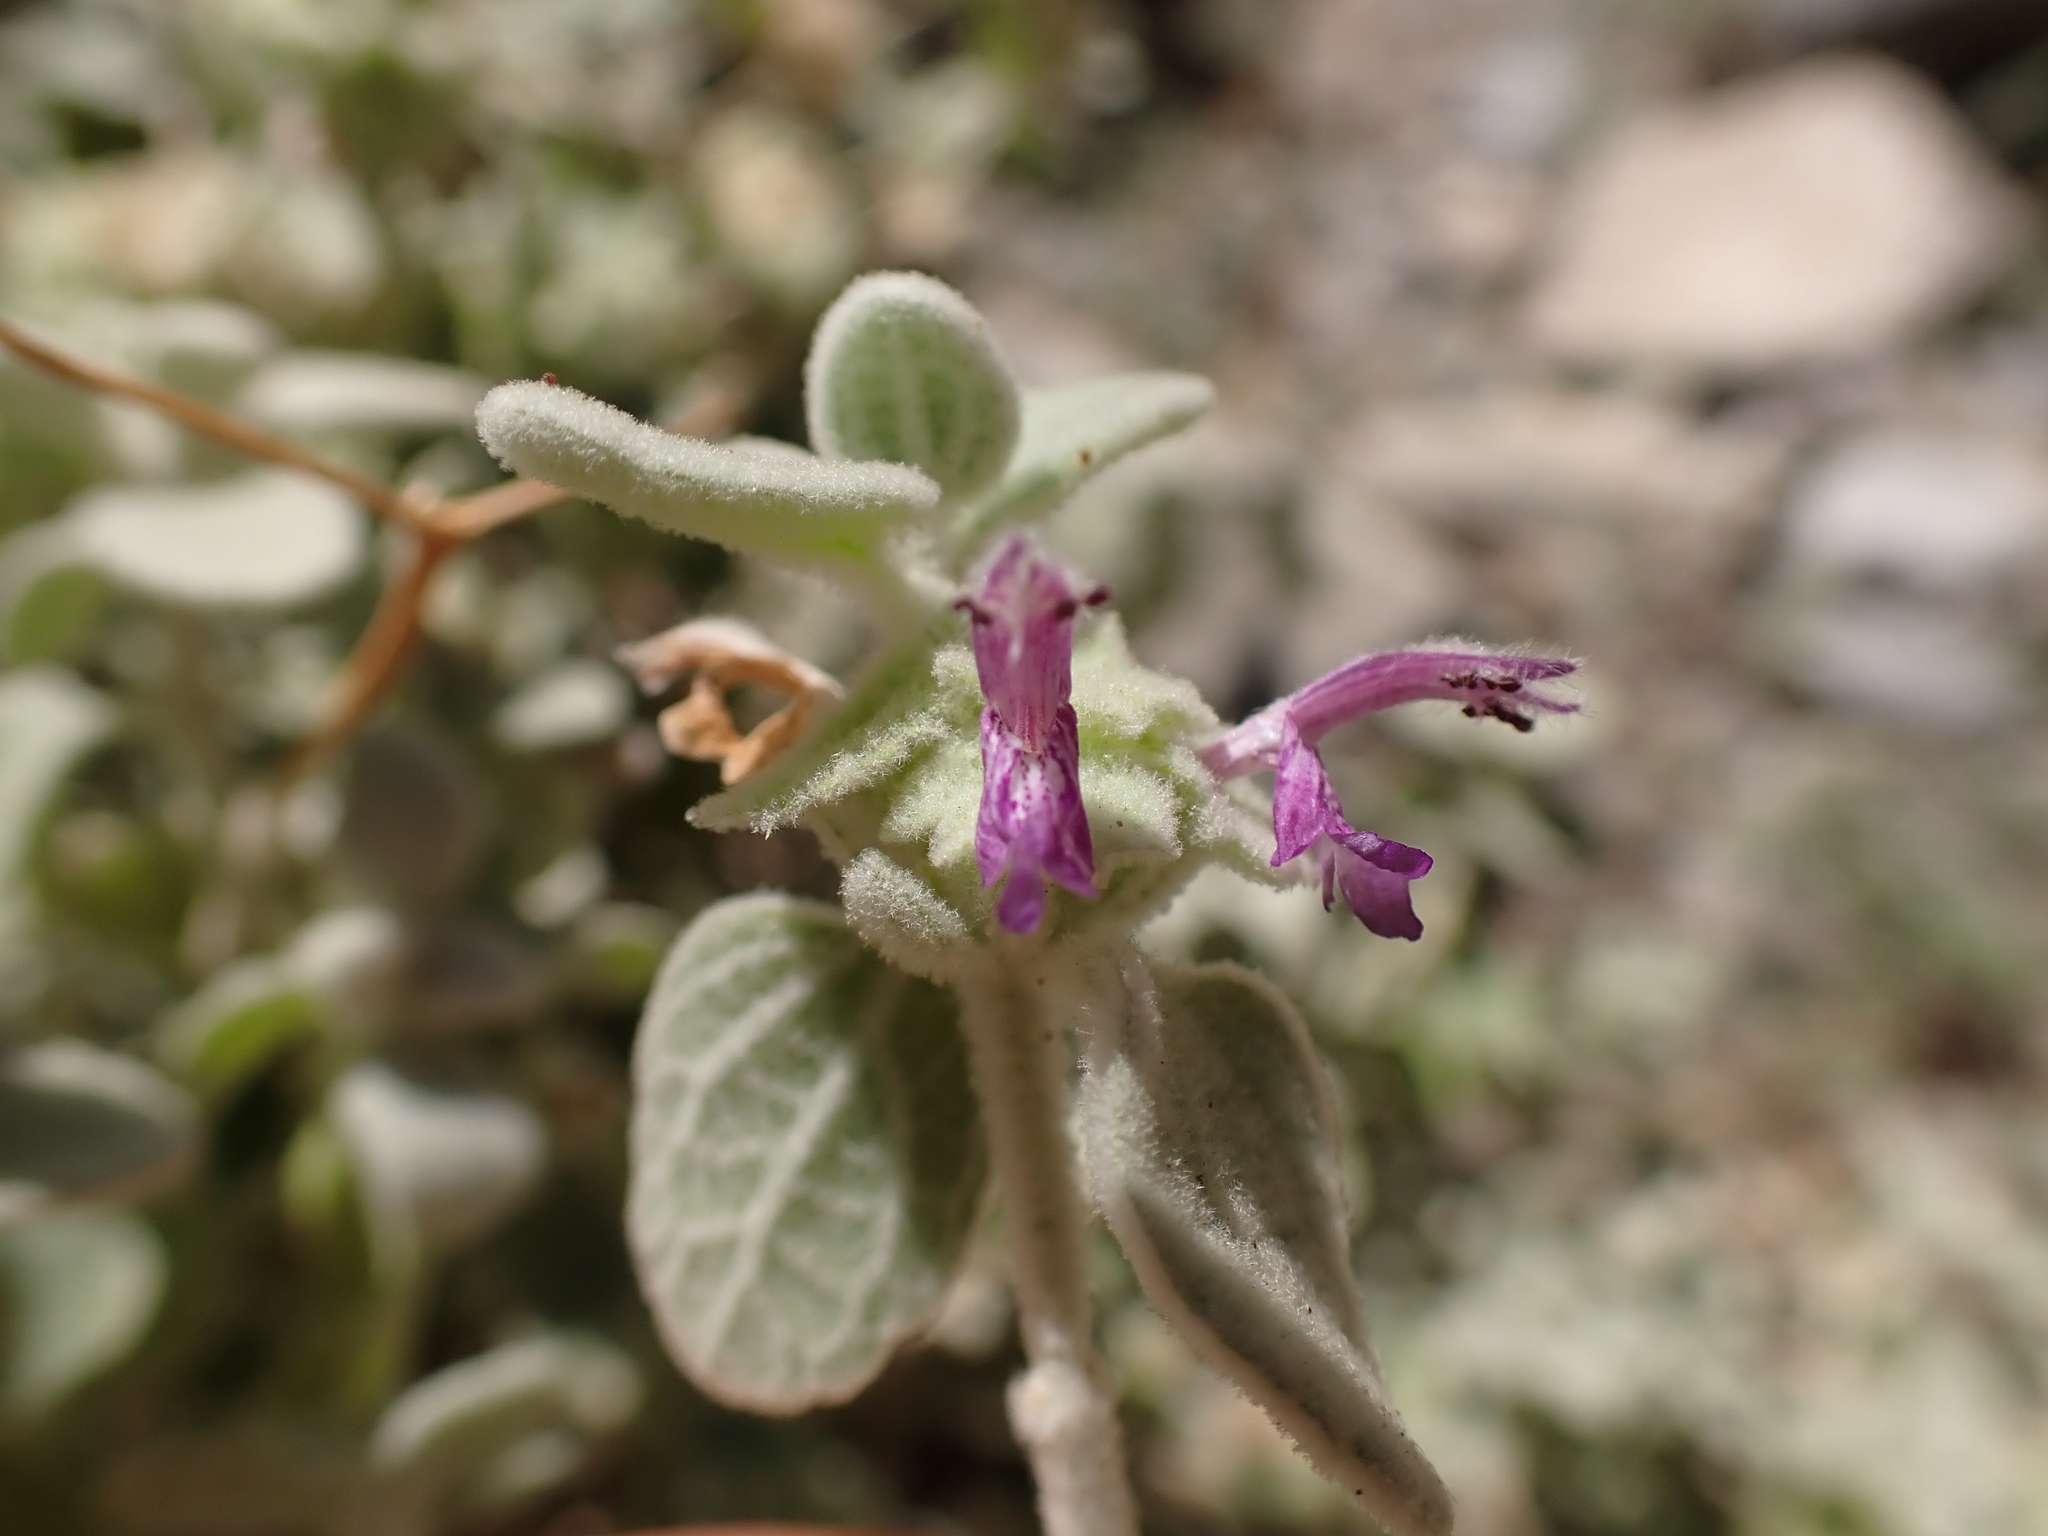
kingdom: Plantae
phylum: Tracheophyta
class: Magnoliopsida
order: Lamiales
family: Lamiaceae
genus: Pseudodictamnus
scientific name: Pseudodictamnus mediterraneus
